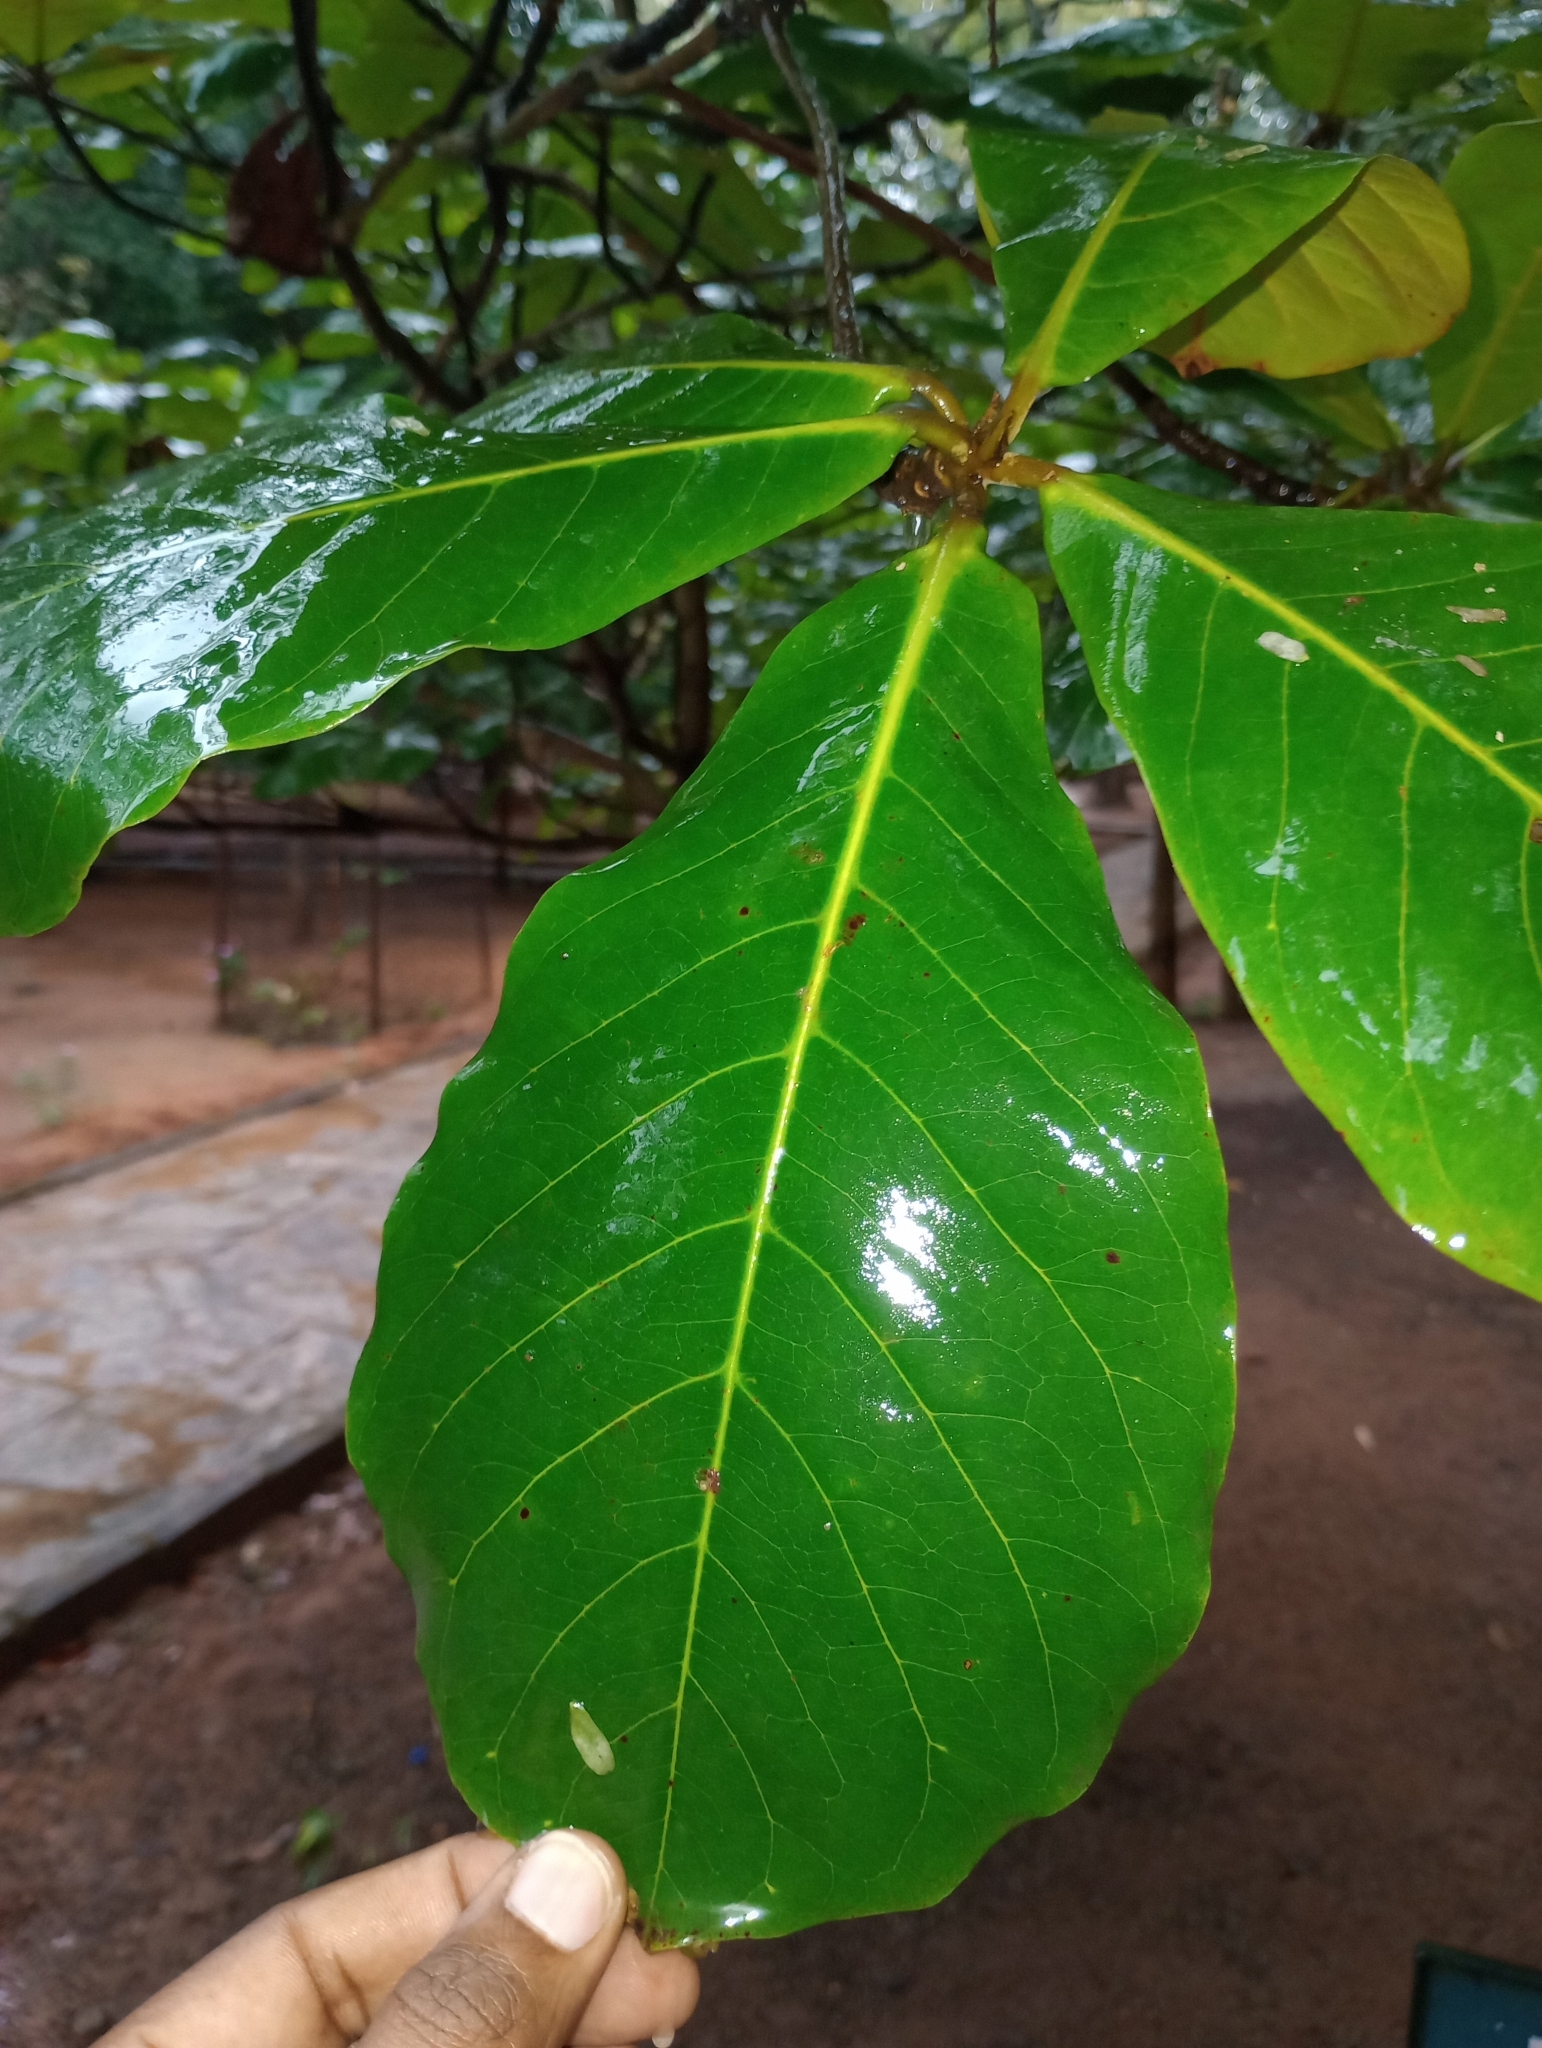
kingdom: Plantae
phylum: Tracheophyta
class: Magnoliopsida
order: Myrtales
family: Combretaceae
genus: Terminalia
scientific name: Terminalia catappa
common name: Tropical almond
